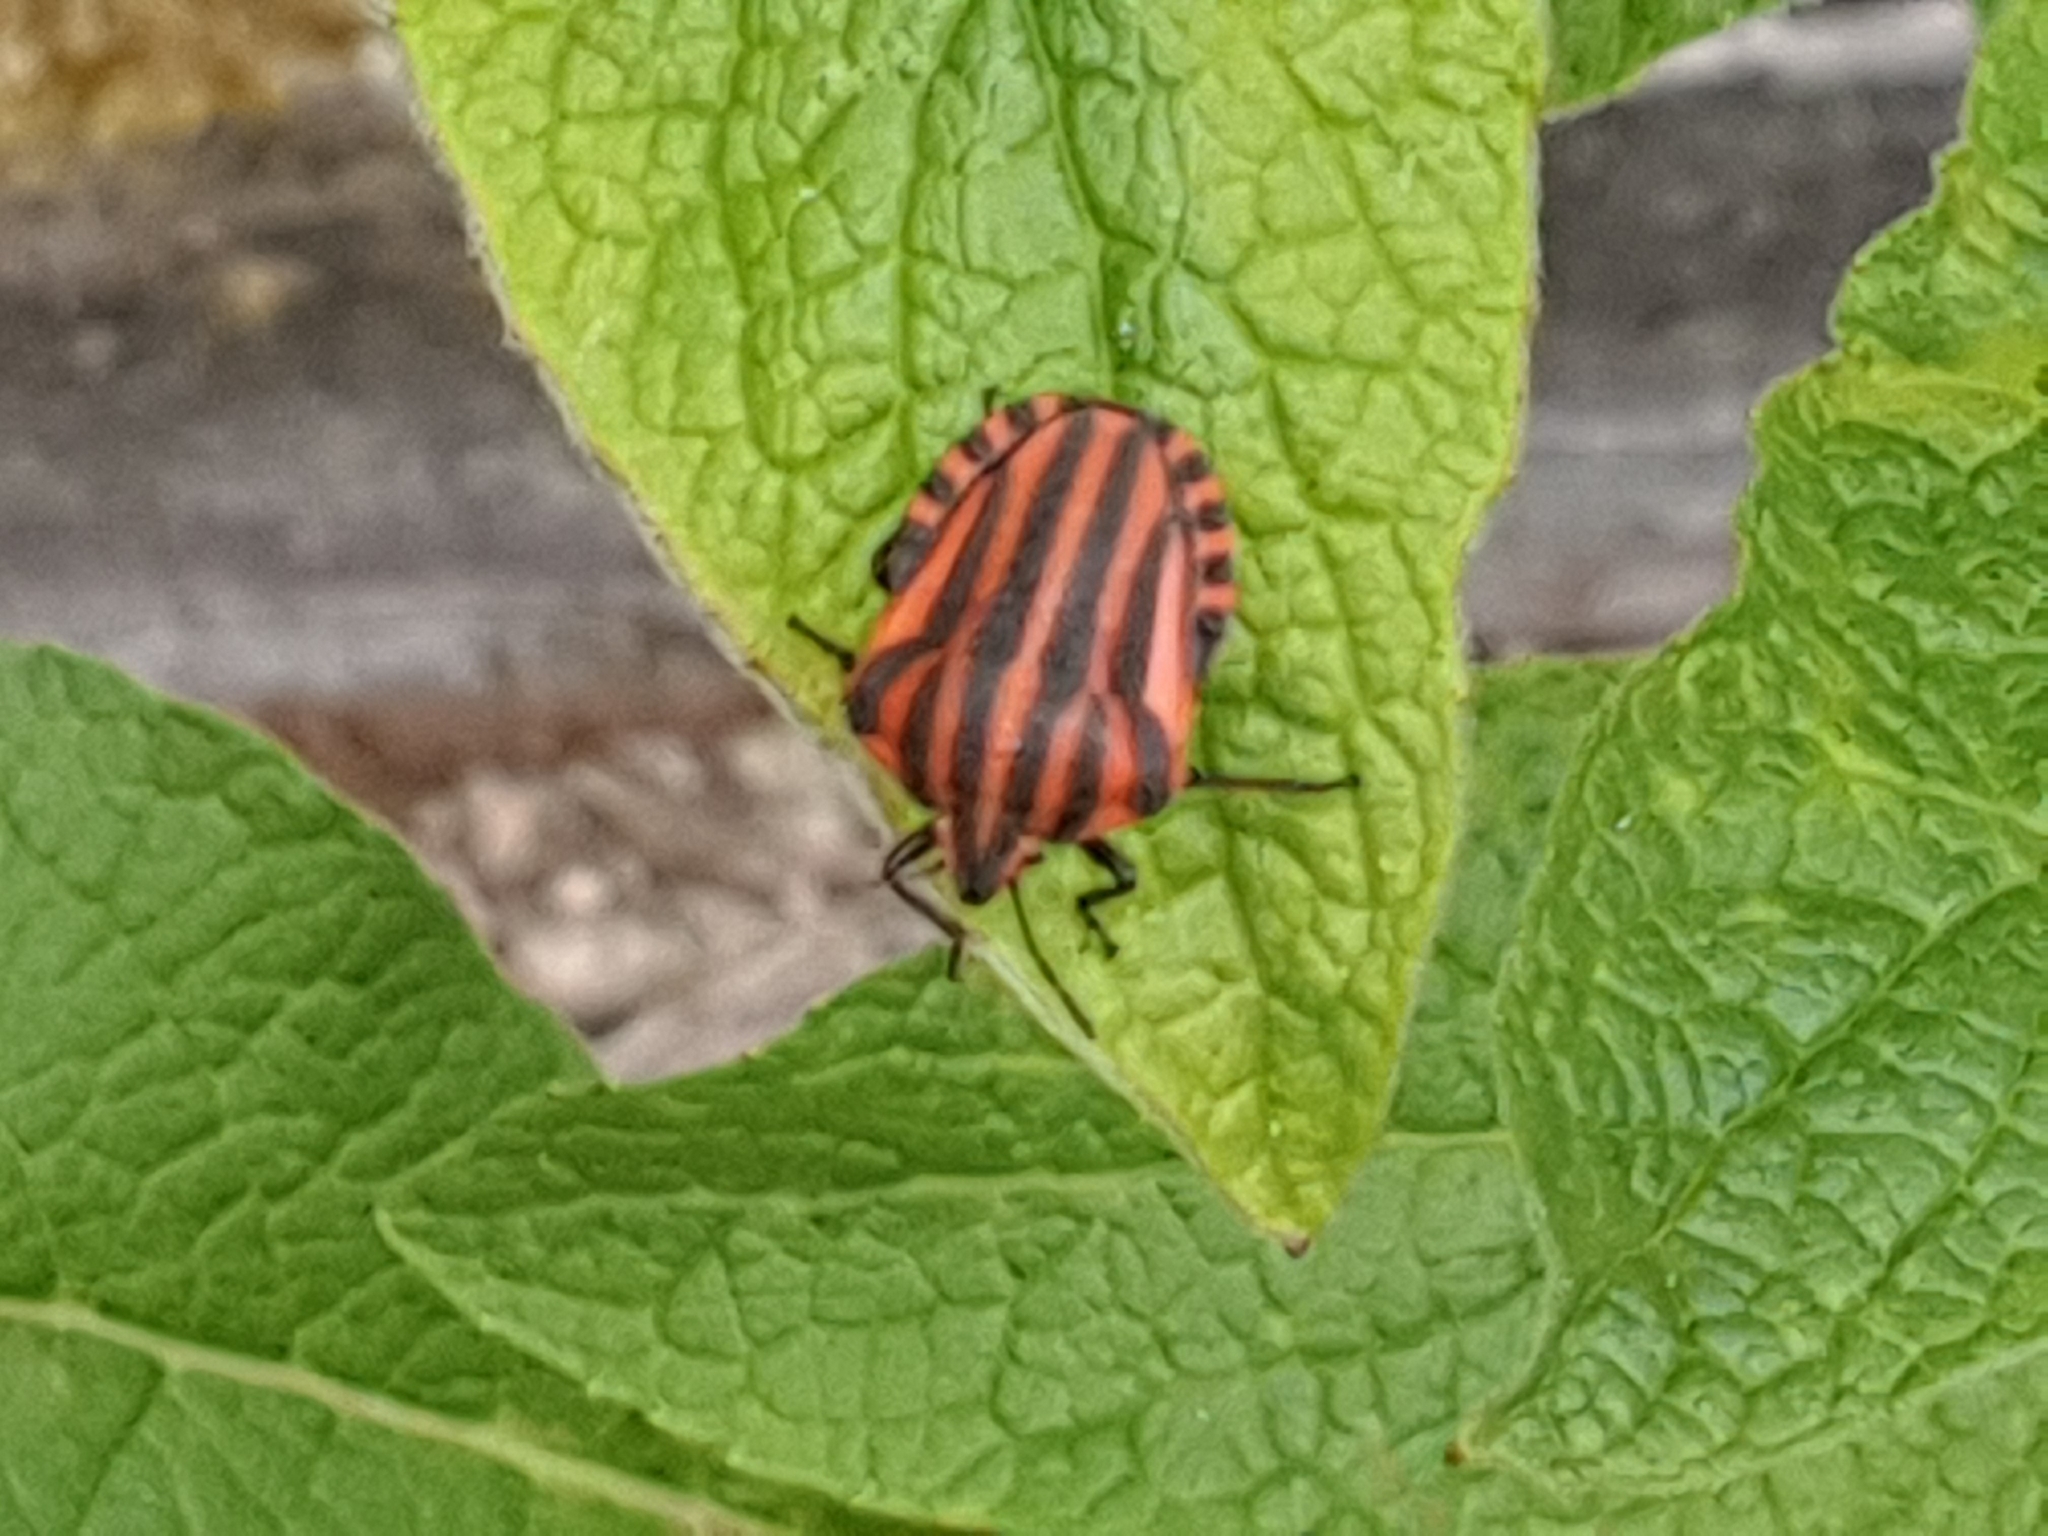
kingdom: Animalia
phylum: Arthropoda
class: Insecta
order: Hemiptera
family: Pentatomidae
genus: Graphosoma
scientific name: Graphosoma italicum
